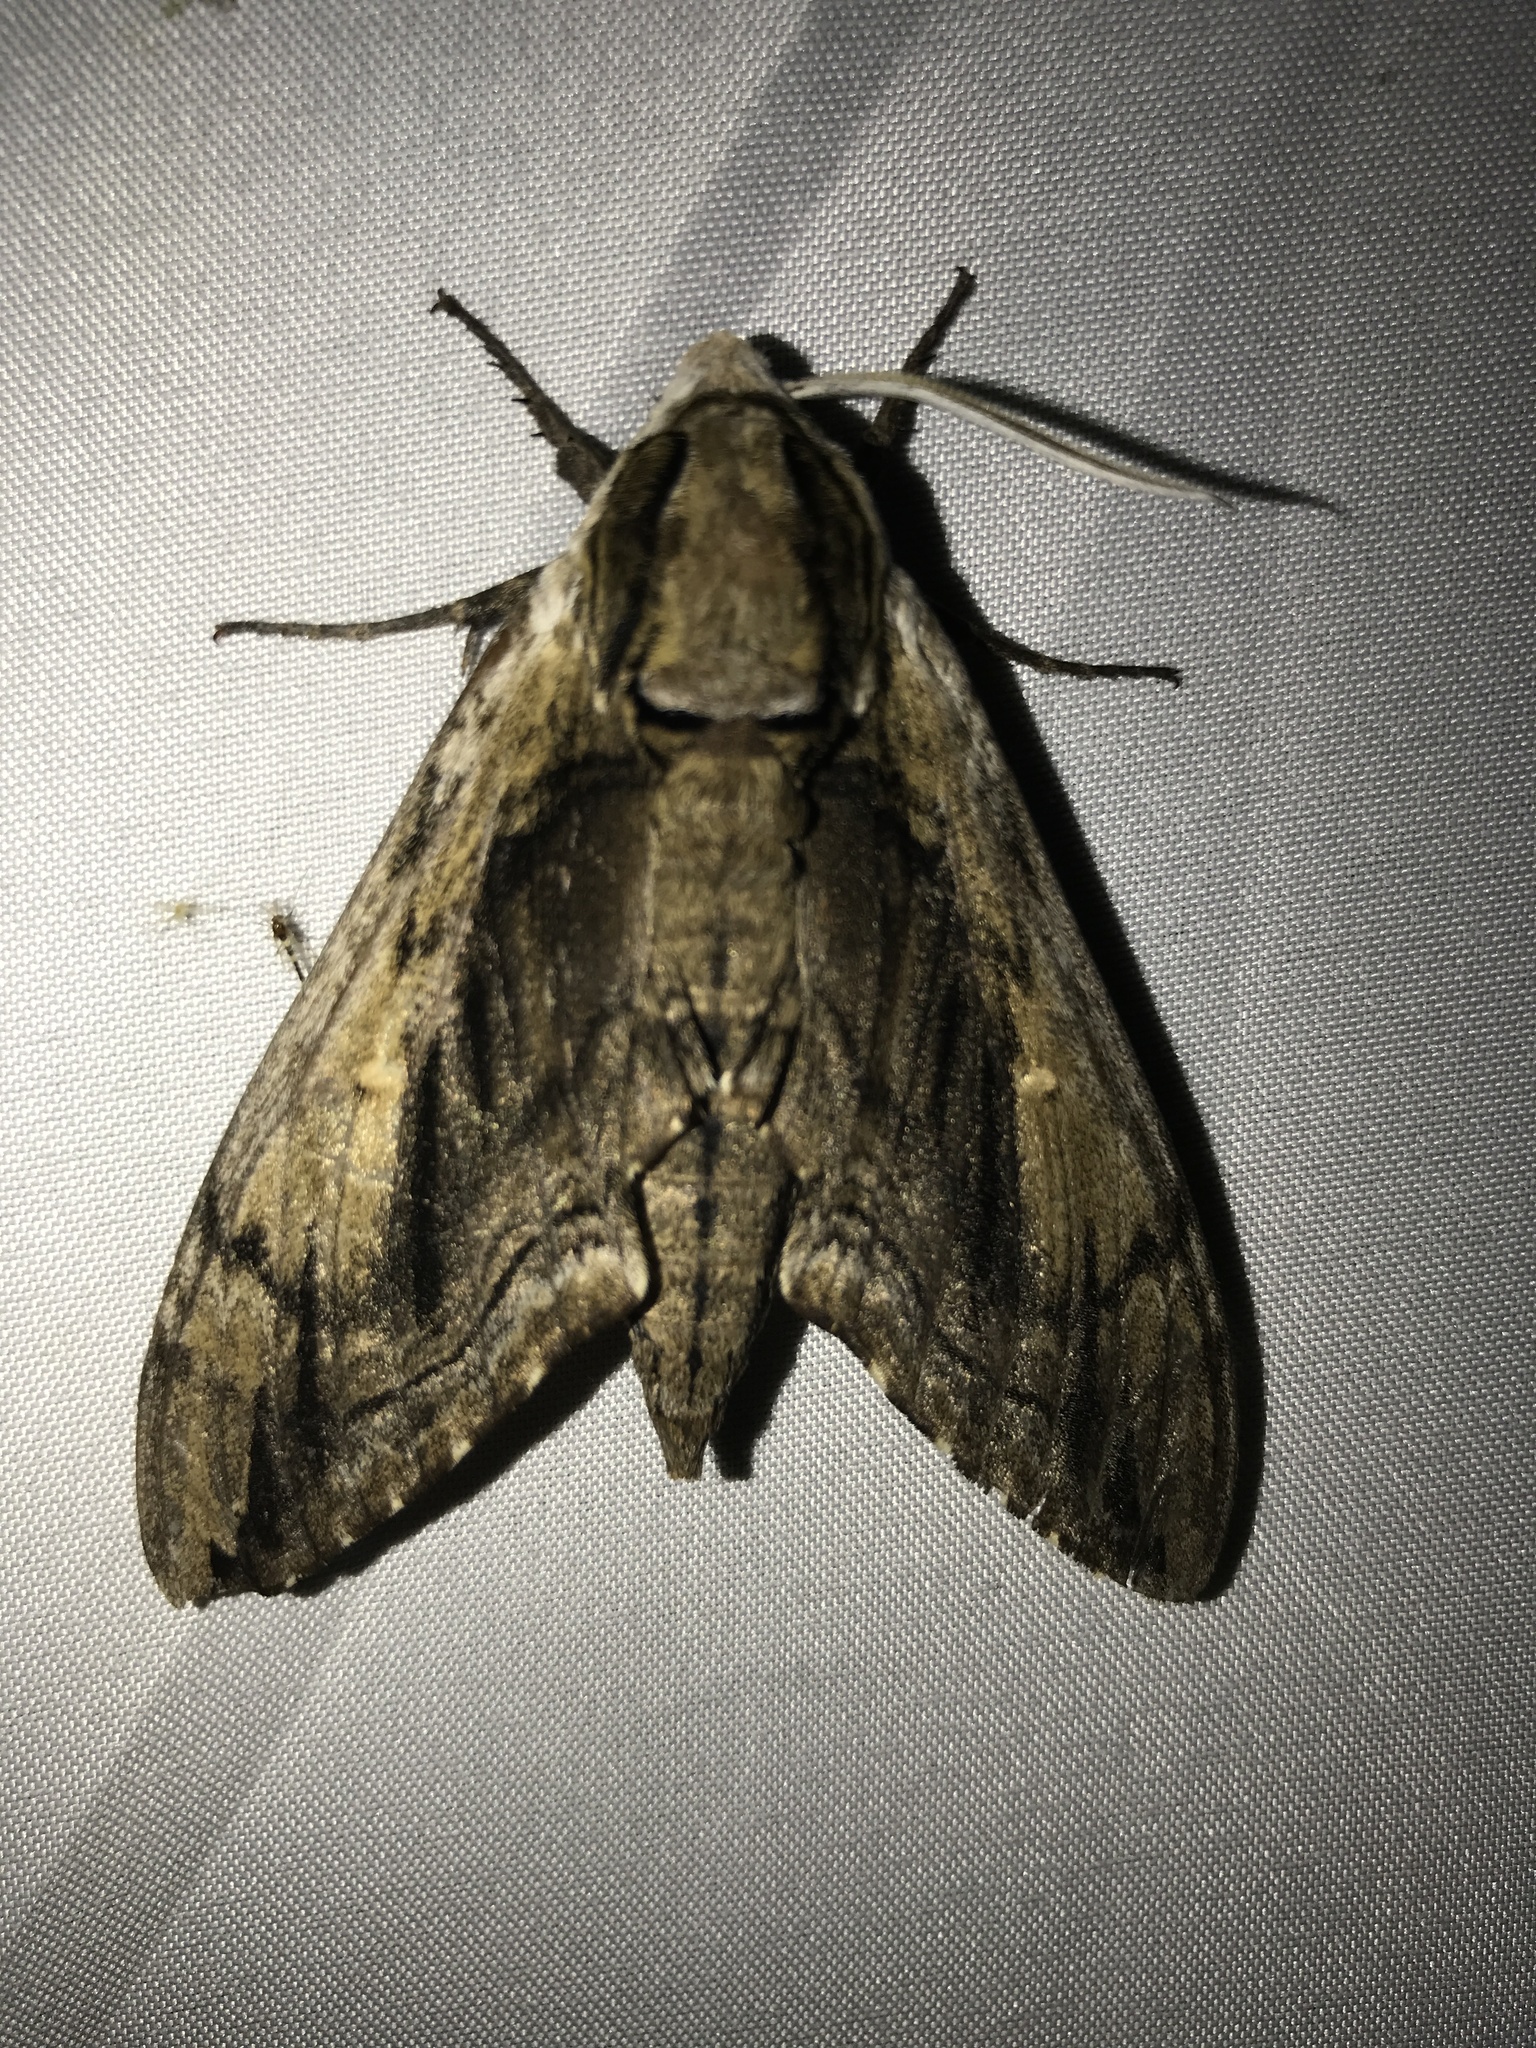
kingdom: Animalia
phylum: Arthropoda
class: Insecta
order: Lepidoptera
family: Sphingidae
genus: Ceratomia
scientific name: Ceratomia amyntor
